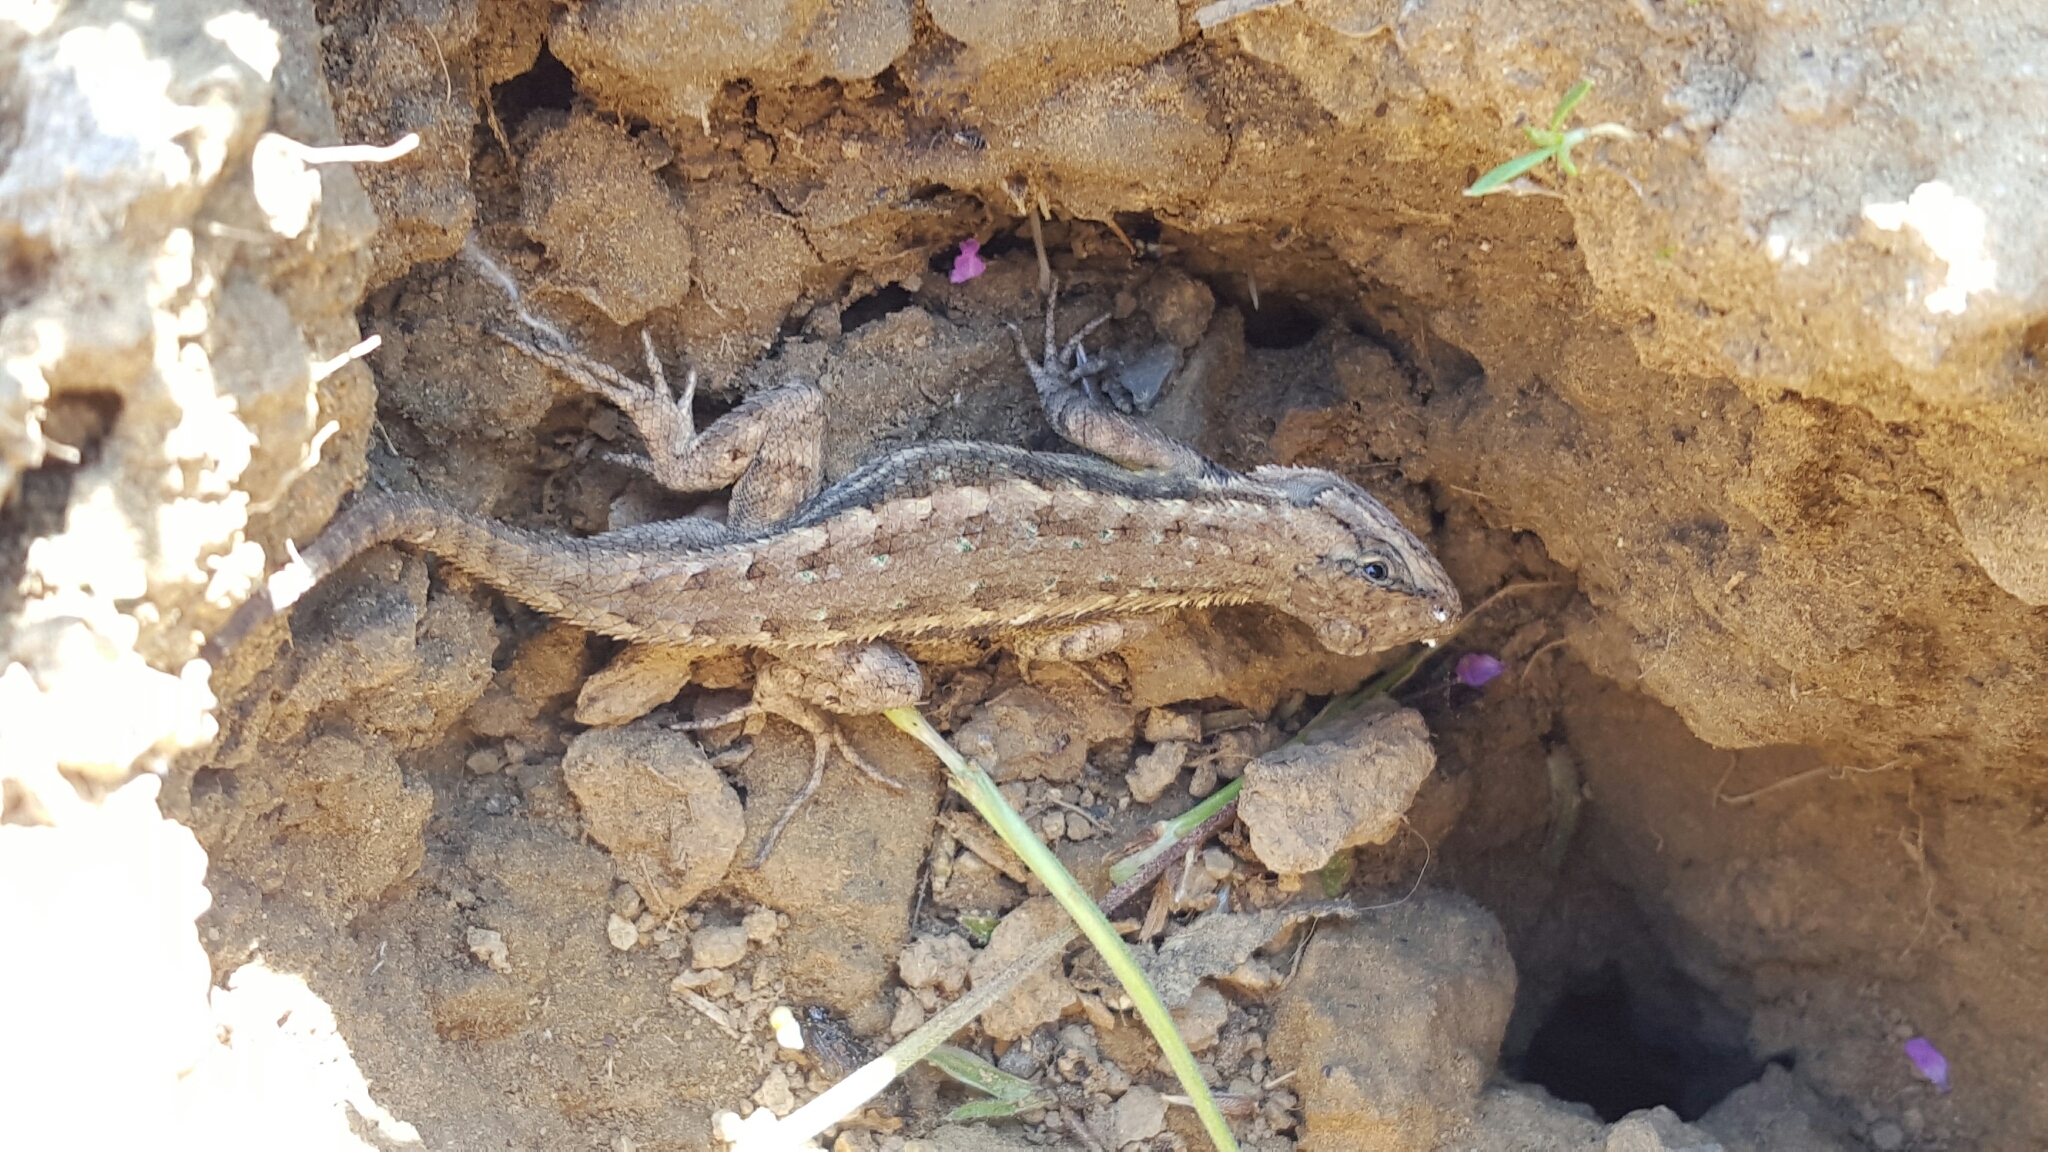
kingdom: Animalia
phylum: Chordata
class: Squamata
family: Phrynosomatidae
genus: Sceloporus
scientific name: Sceloporus occidentalis
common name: Western fence lizard
